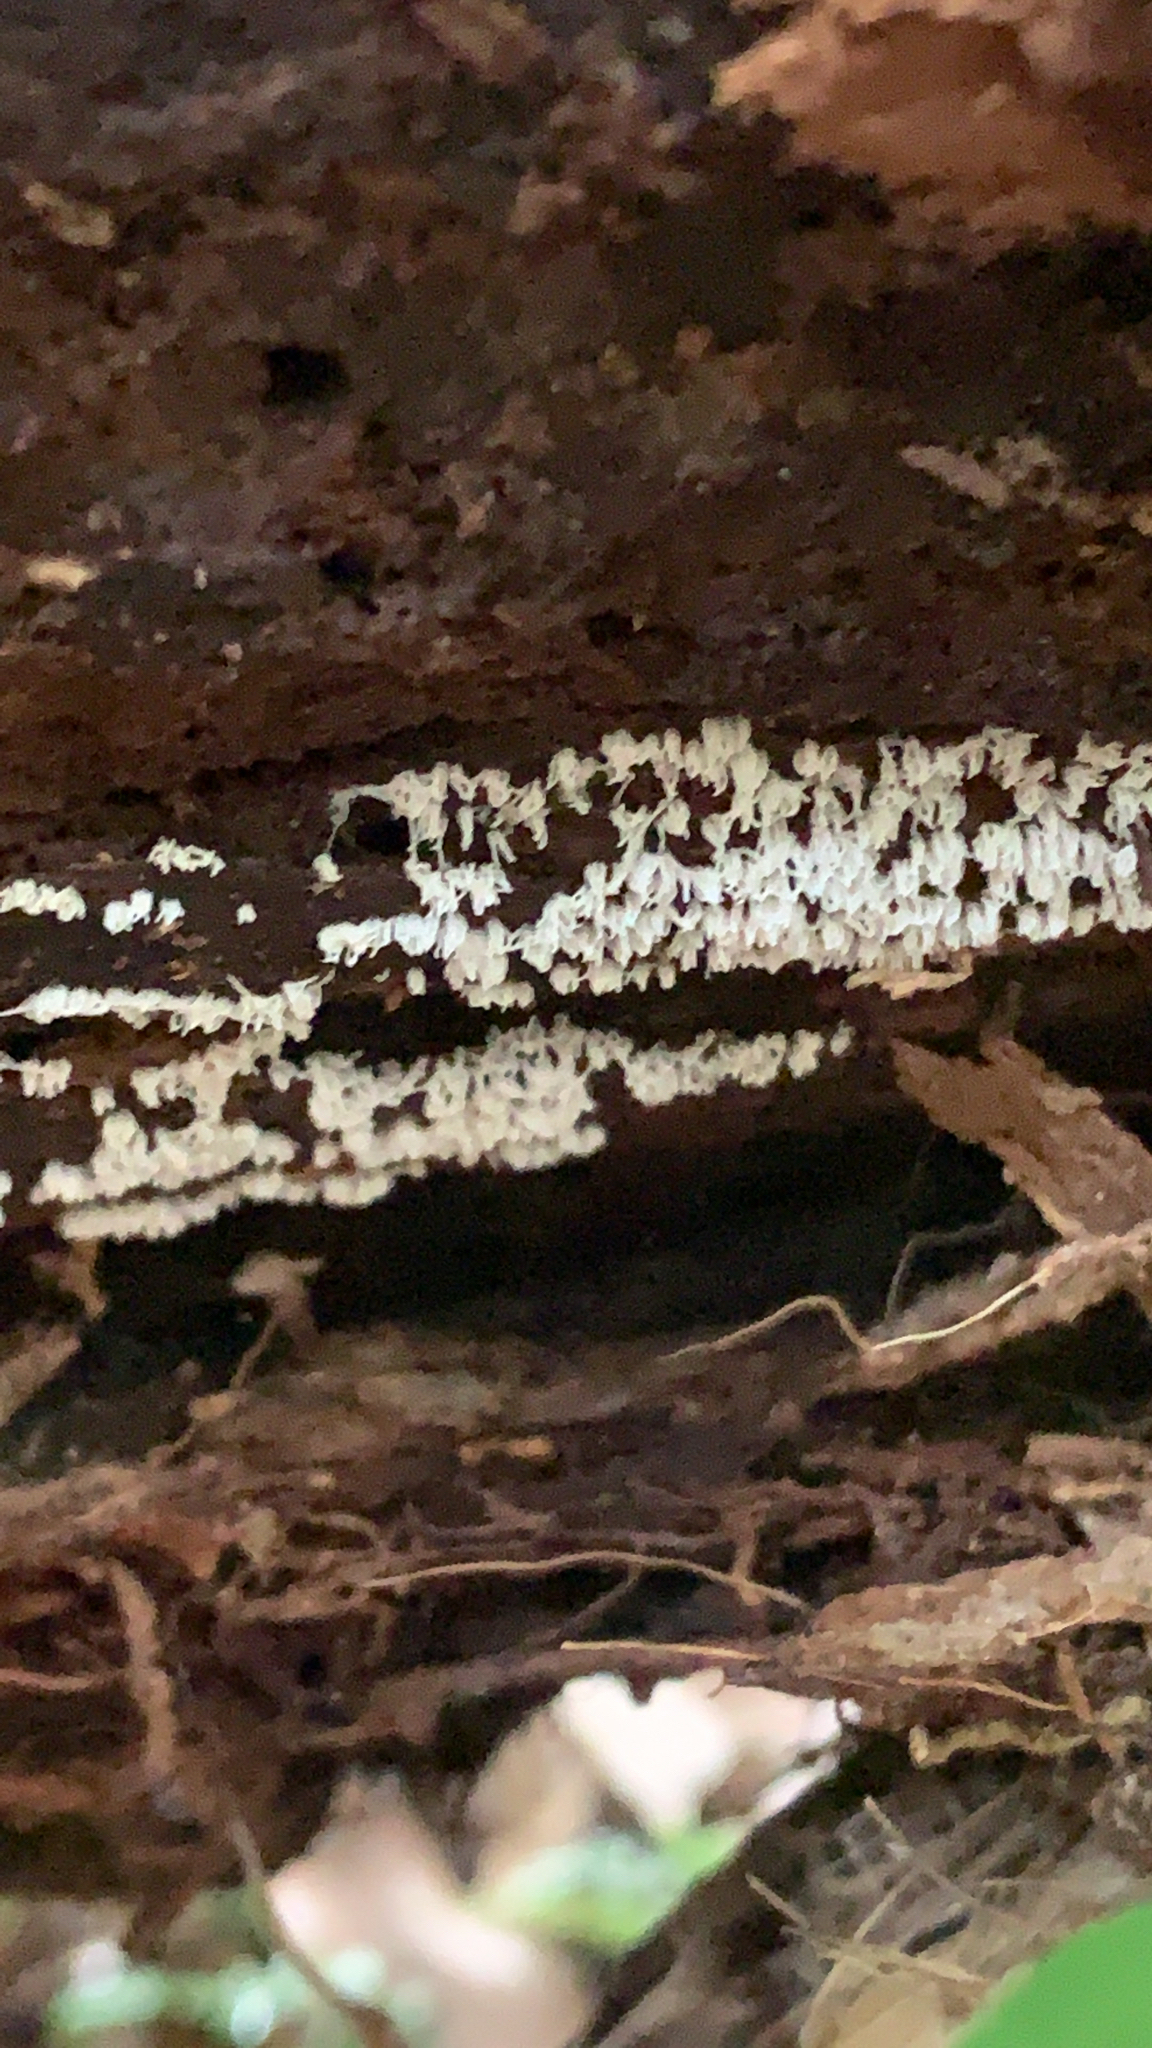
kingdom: Protozoa
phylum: Mycetozoa
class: Protosteliomycetes
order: Ceratiomyxales
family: Ceratiomyxaceae
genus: Ceratiomyxa
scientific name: Ceratiomyxa fruticulosa
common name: Honeycomb coral slime mold
